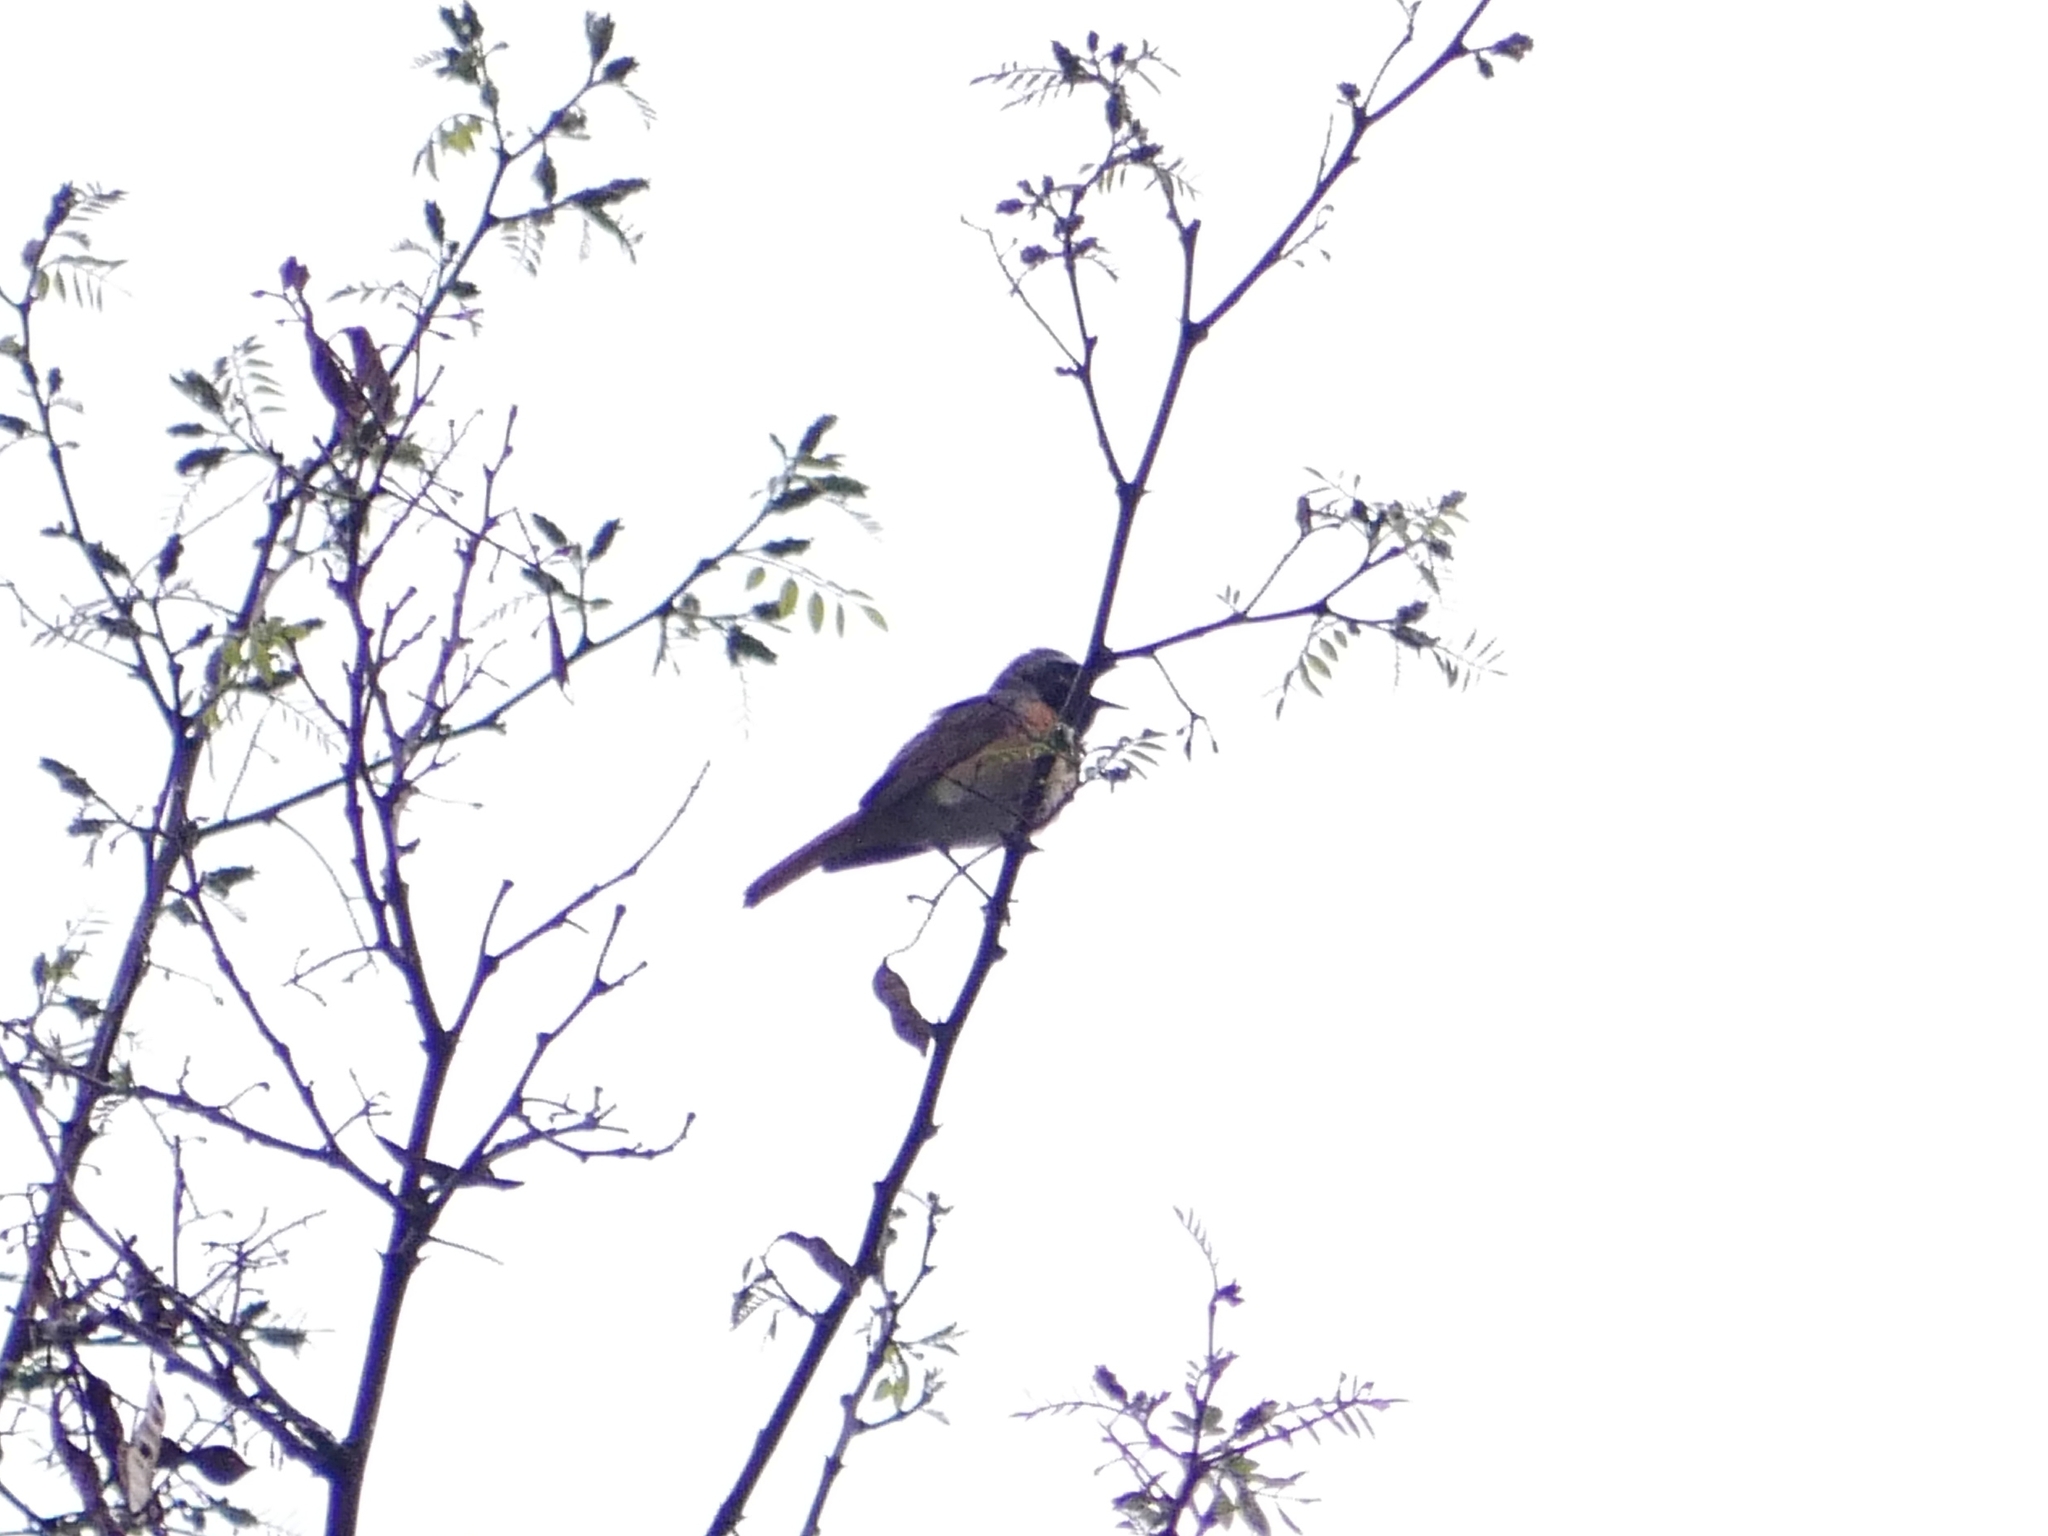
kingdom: Animalia
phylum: Chordata
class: Aves
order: Passeriformes
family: Muscicapidae
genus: Phoenicurus
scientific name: Phoenicurus phoenicurus
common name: Common redstart
